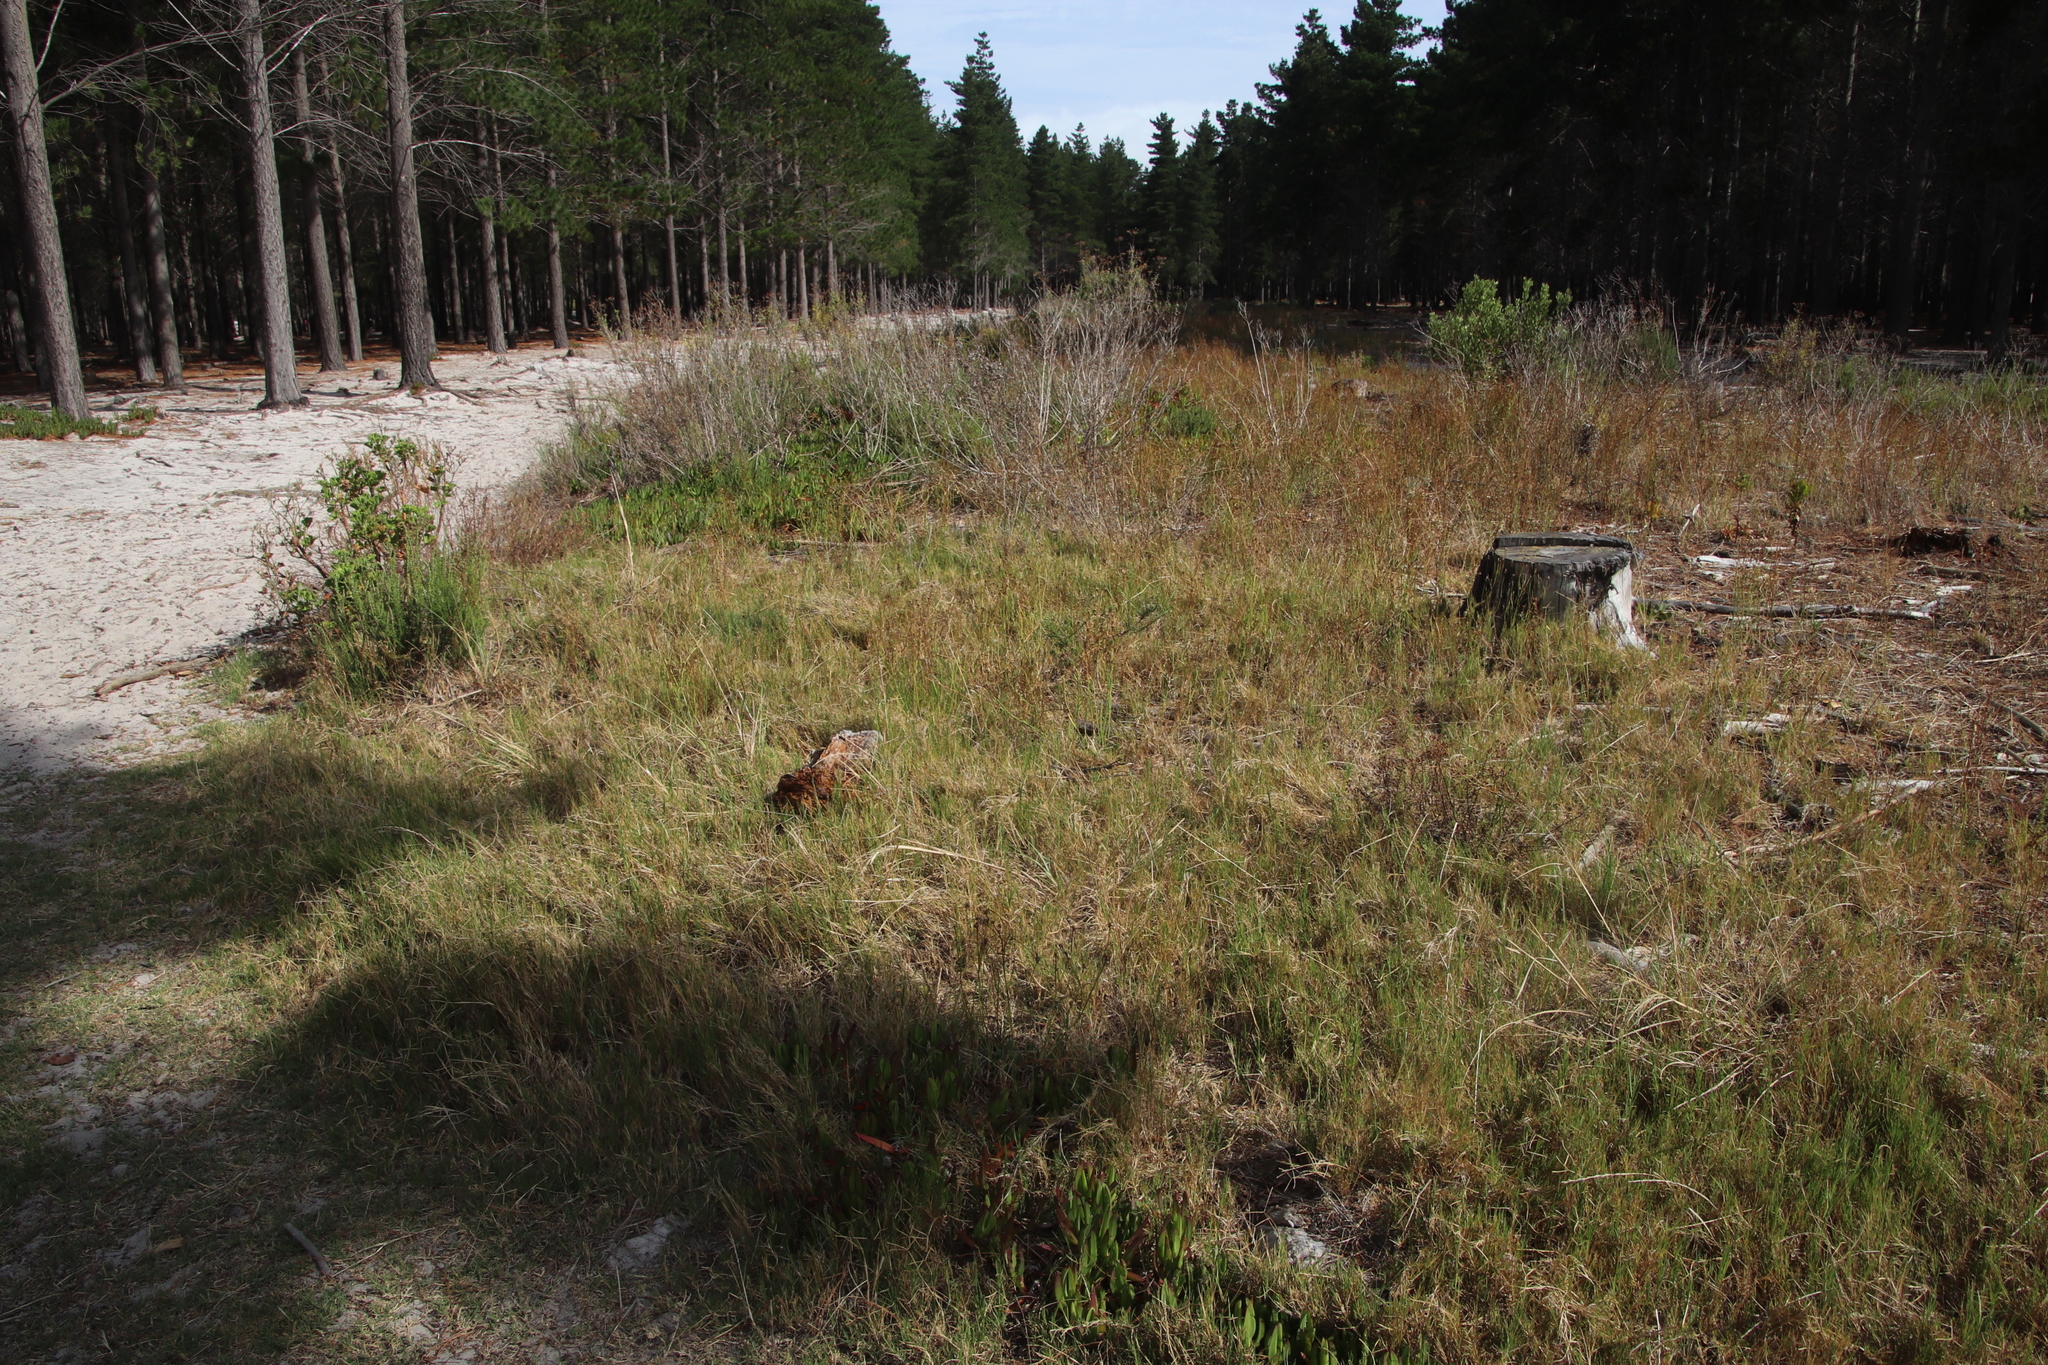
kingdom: Plantae
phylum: Tracheophyta
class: Liliopsida
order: Poales
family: Poaceae
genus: Cynodon
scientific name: Cynodon dactylon
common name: Bermuda grass
